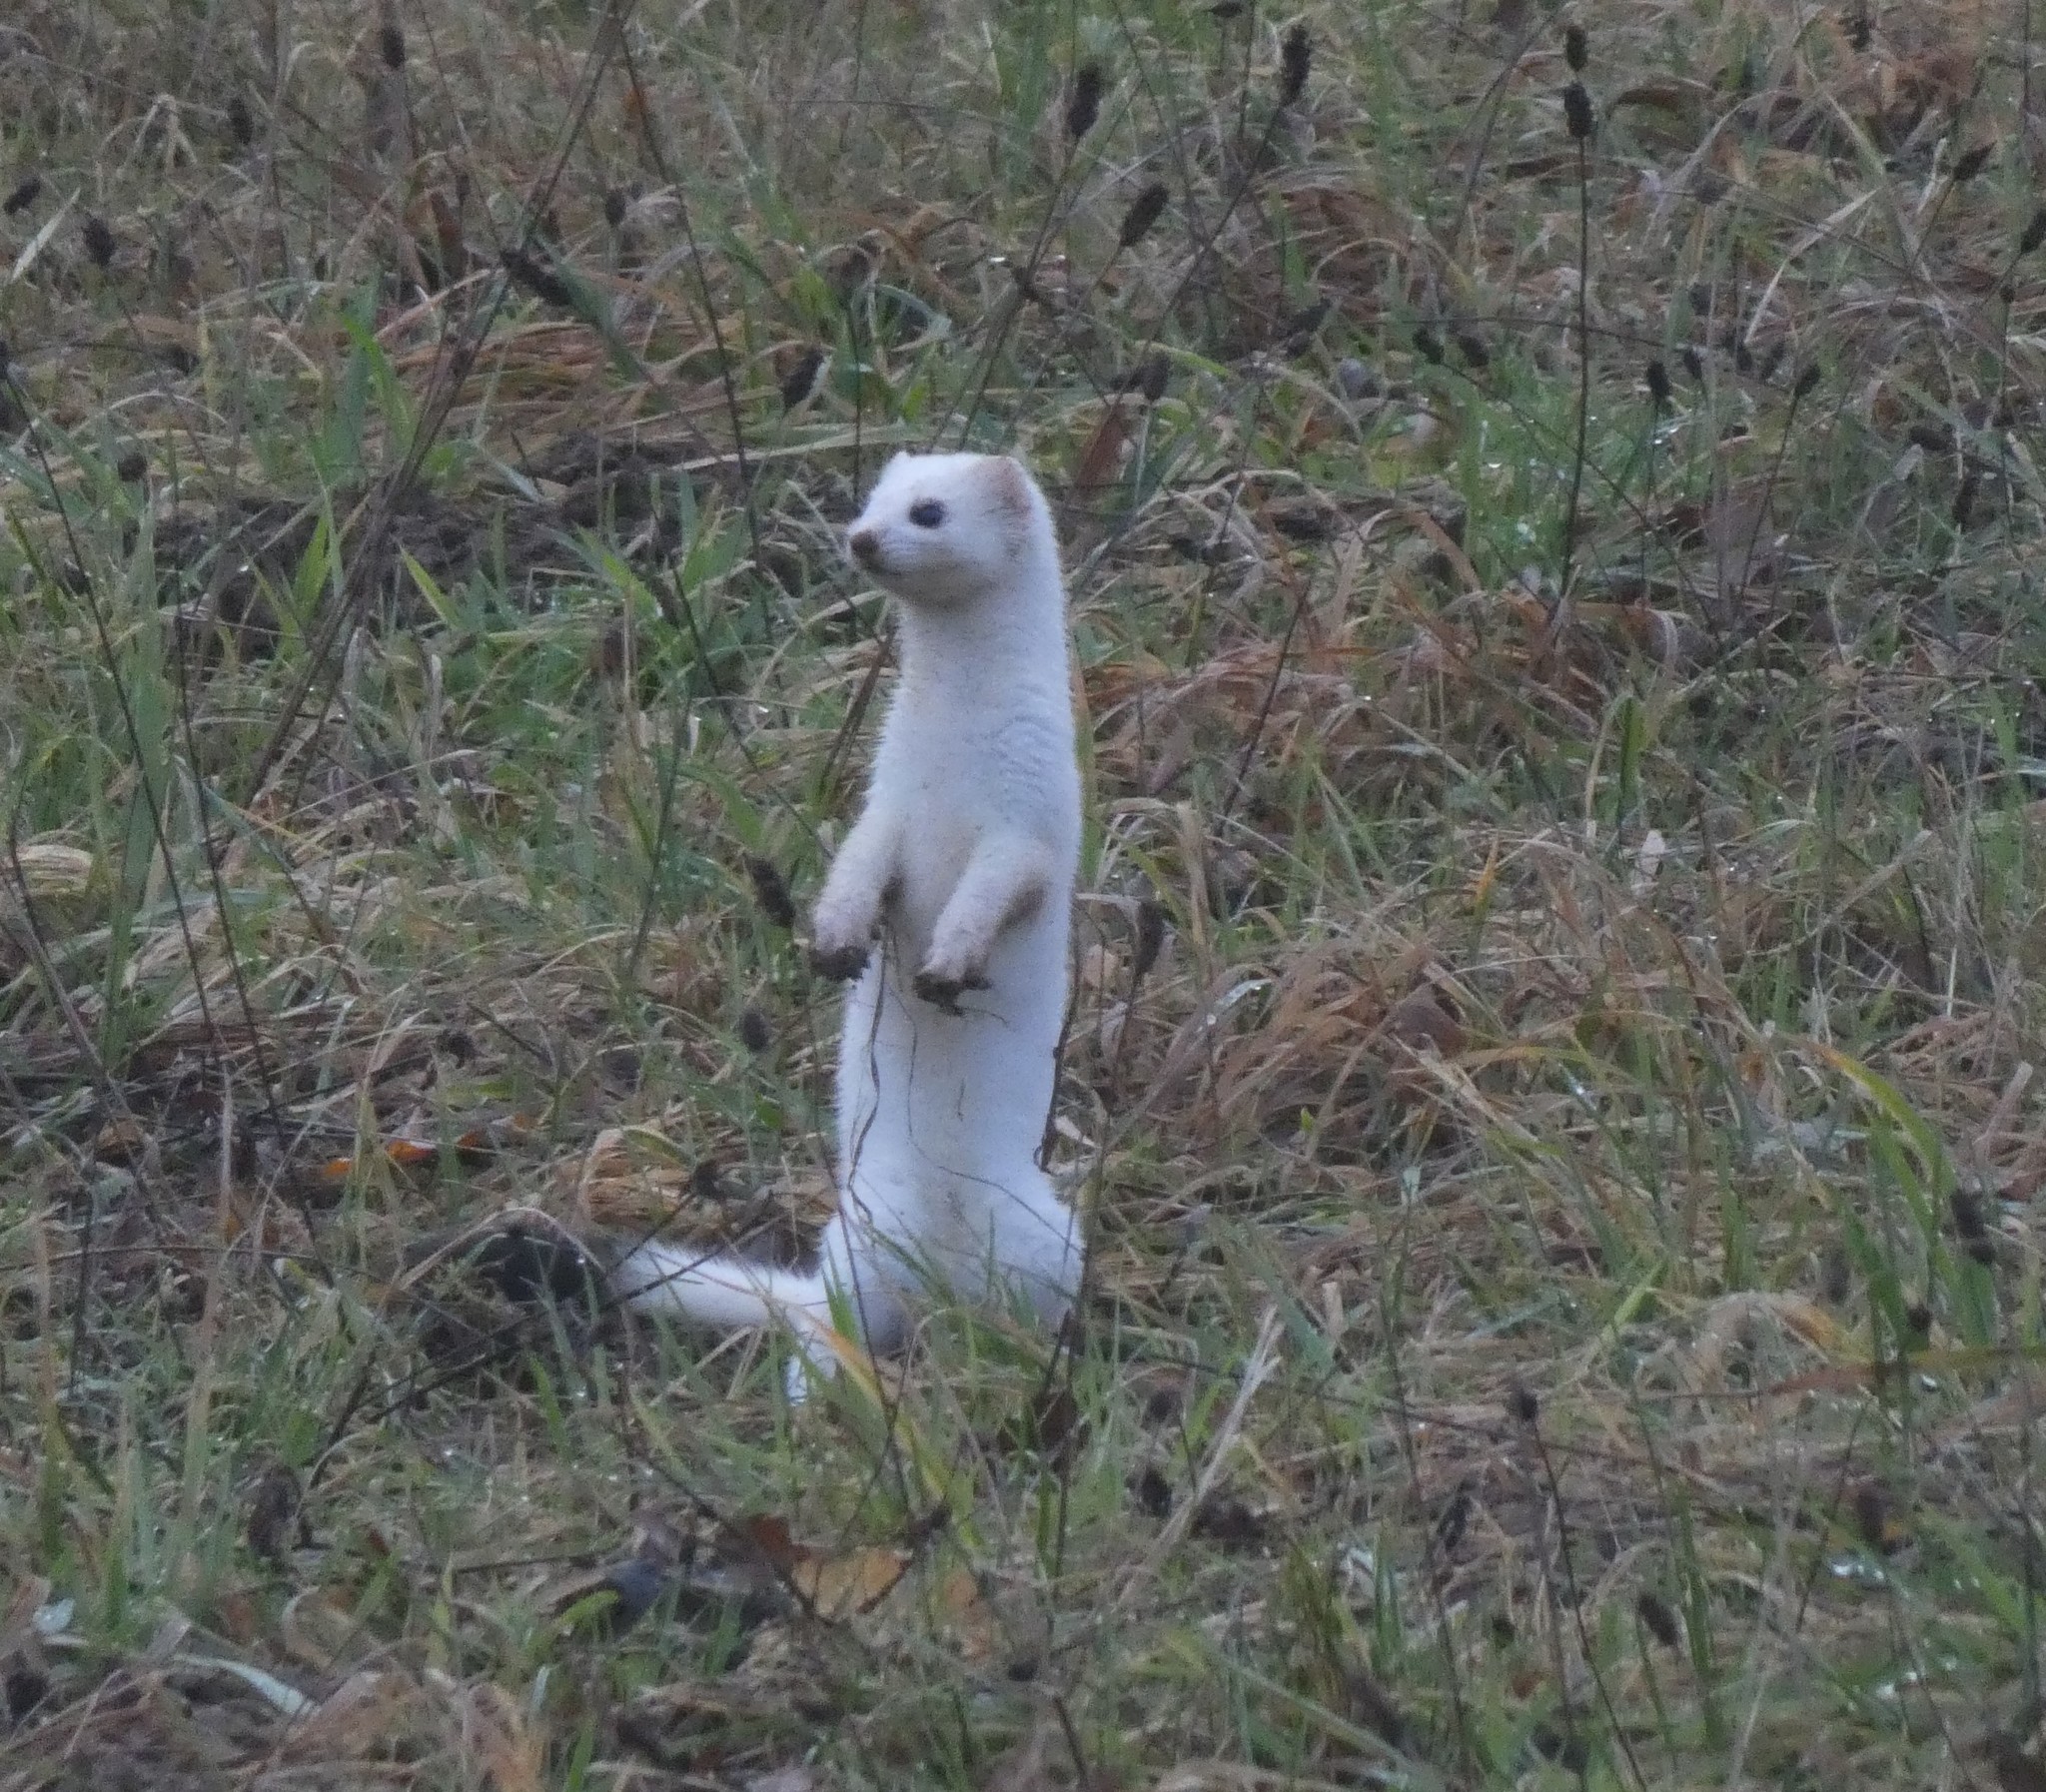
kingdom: Animalia
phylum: Chordata
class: Mammalia
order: Carnivora
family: Mustelidae
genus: Mustela
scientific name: Mustela erminea
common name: Stoat
